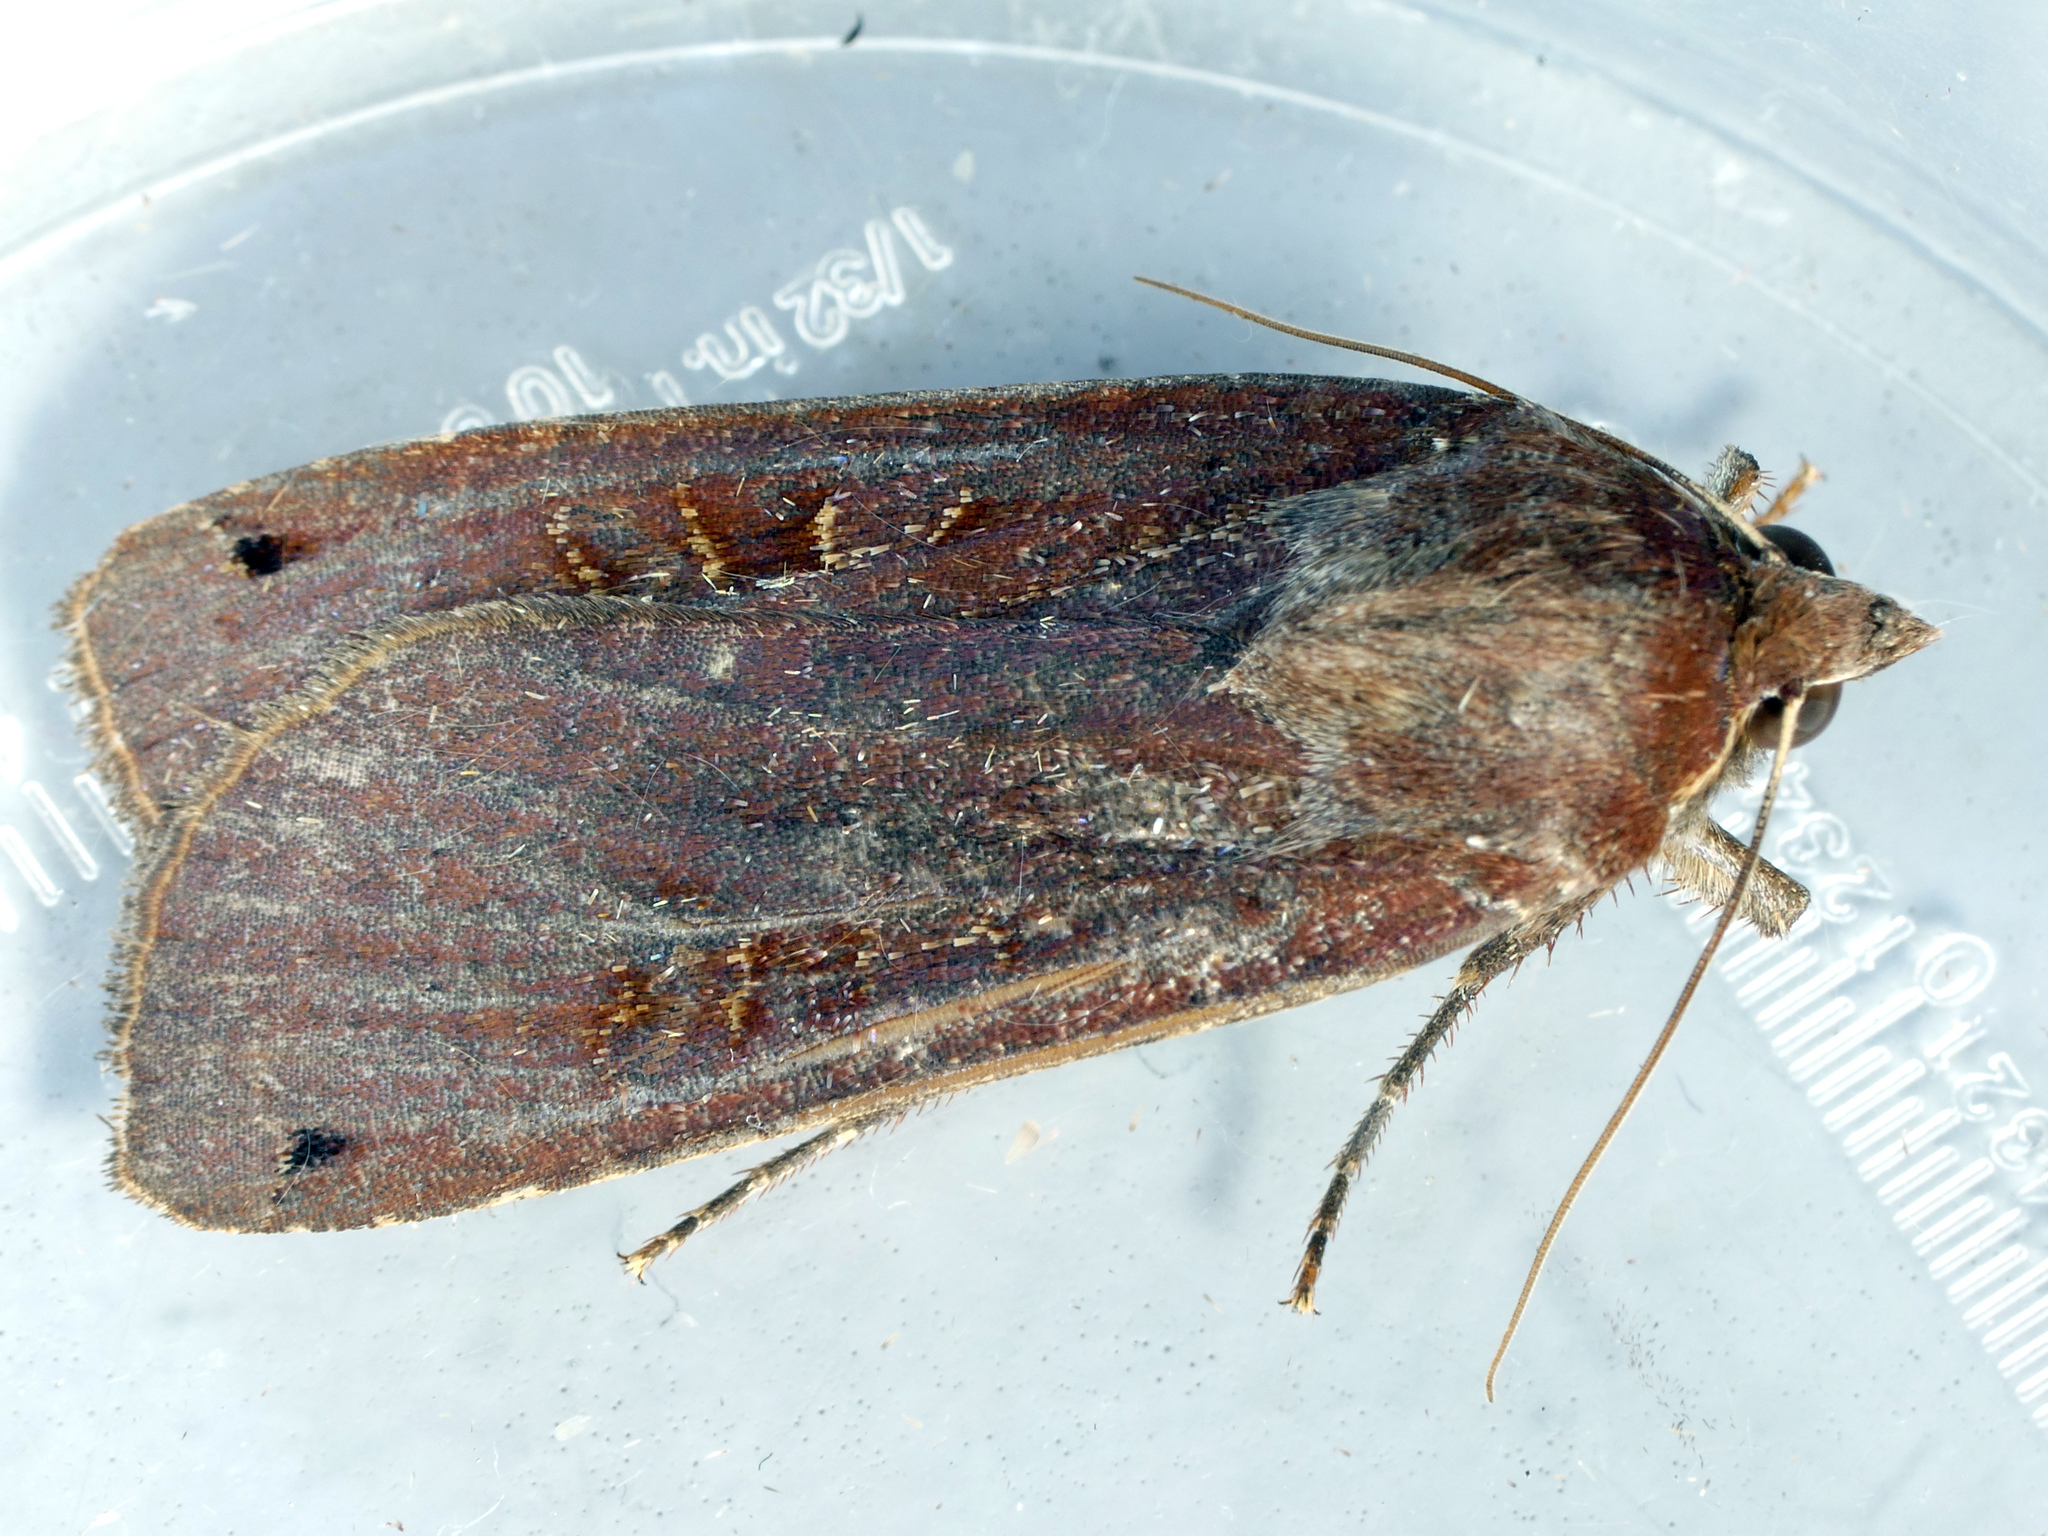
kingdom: Animalia
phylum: Arthropoda
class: Insecta
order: Lepidoptera
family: Noctuidae
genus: Noctua
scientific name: Noctua pronuba
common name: Large yellow underwing
